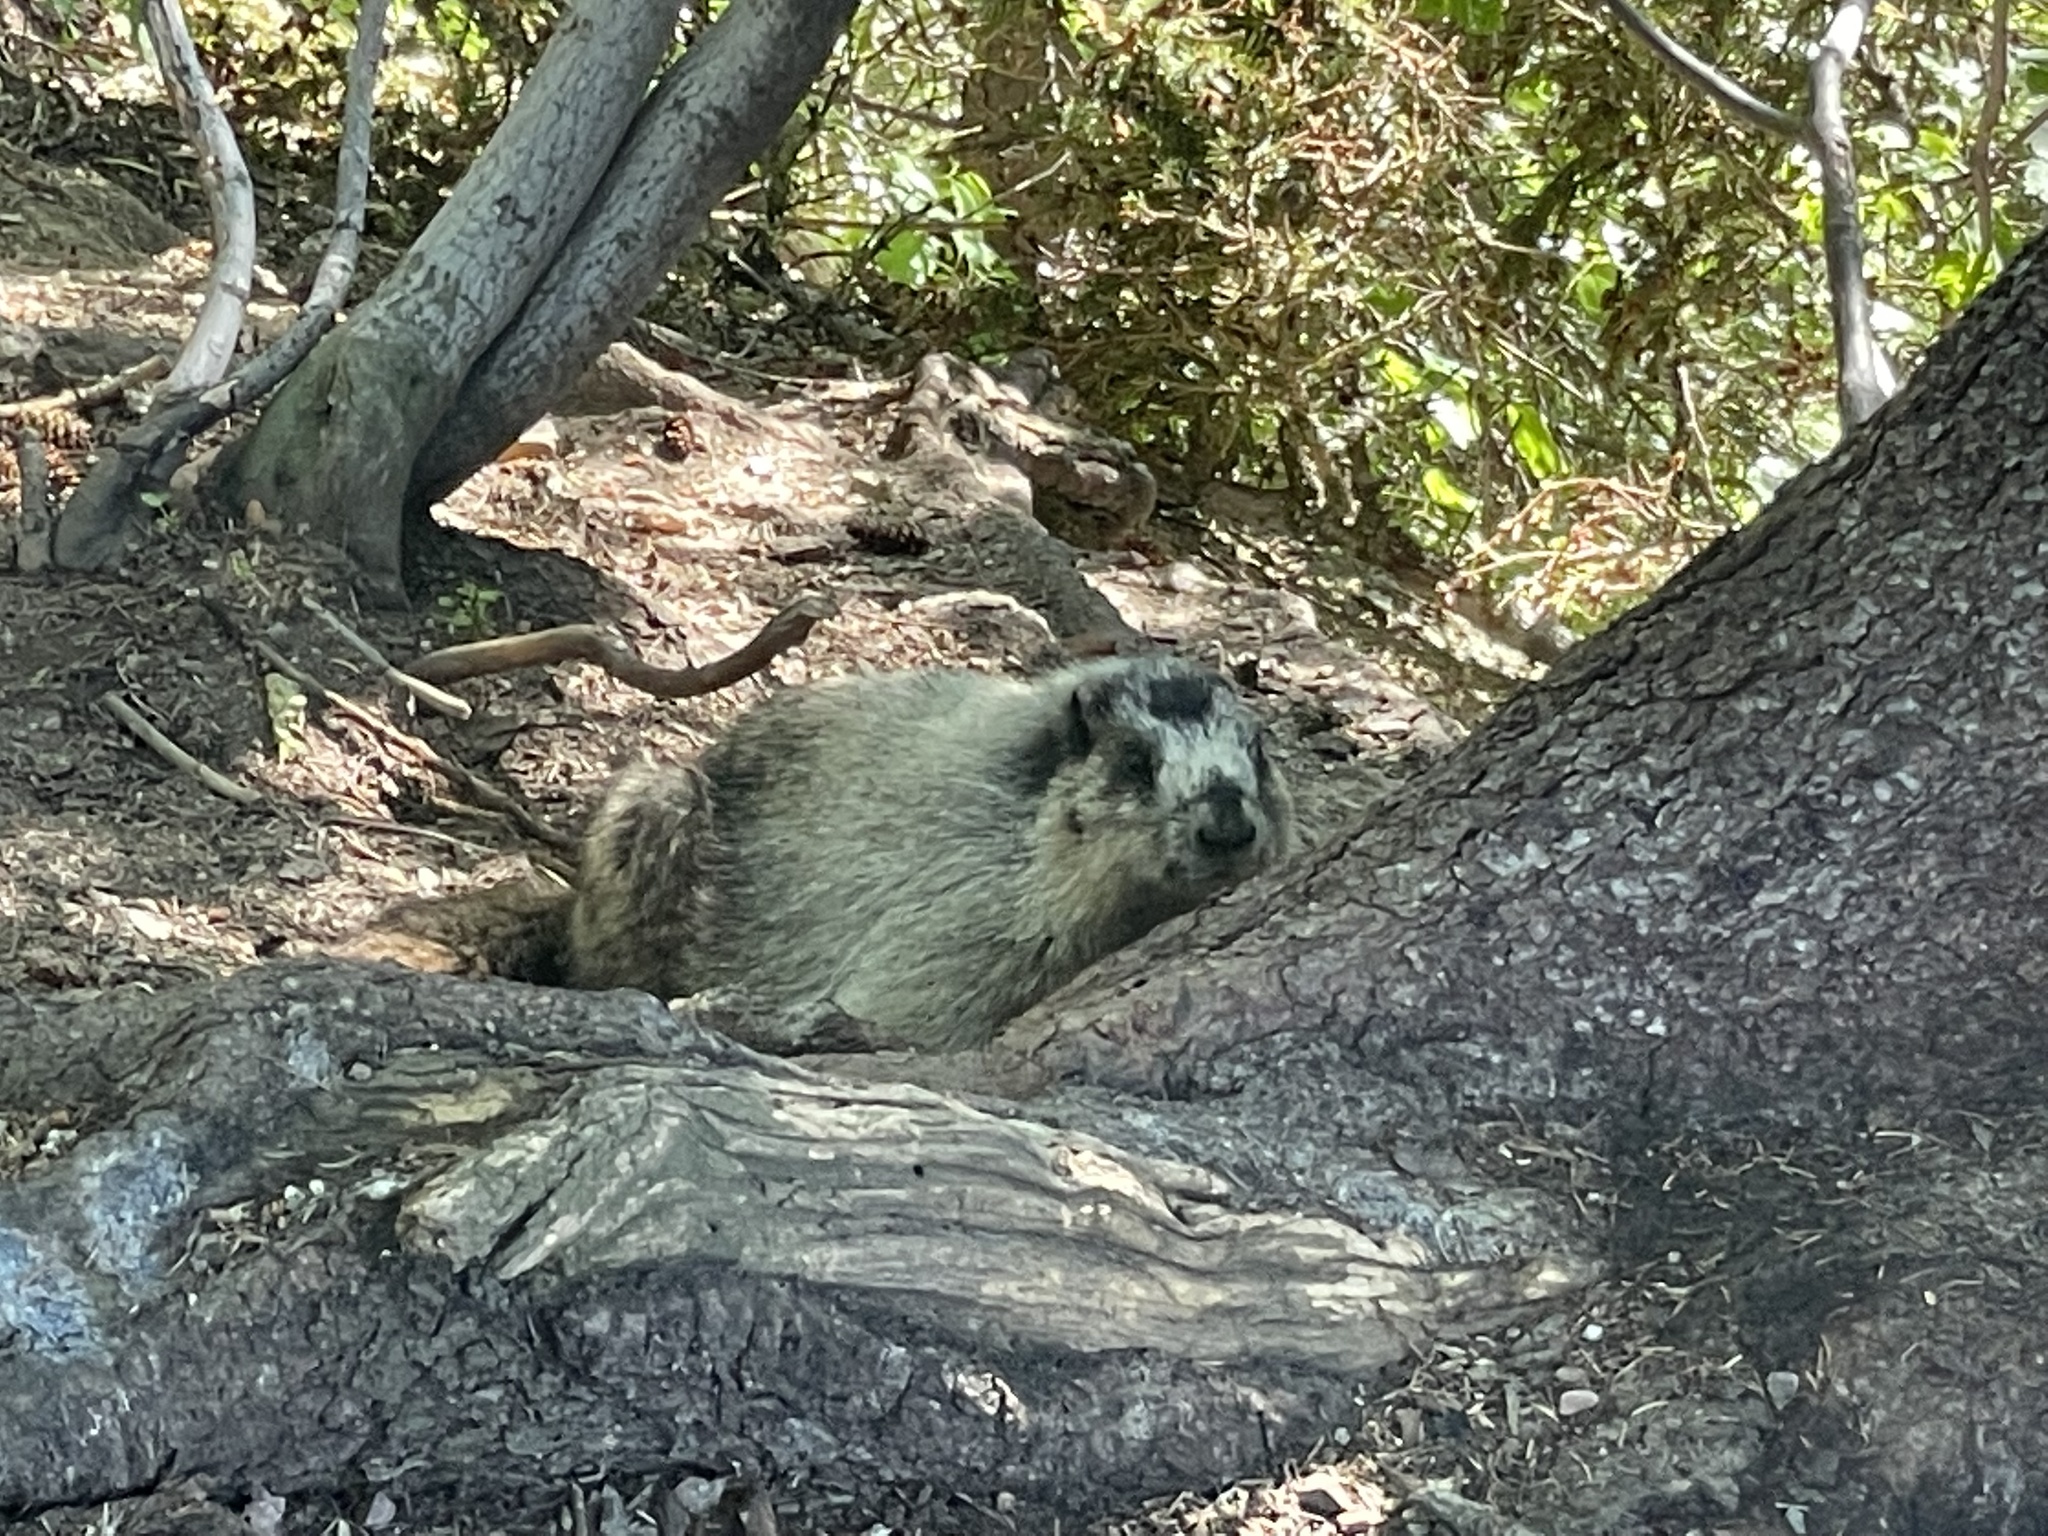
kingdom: Animalia
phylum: Chordata
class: Mammalia
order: Rodentia
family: Sciuridae
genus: Marmota
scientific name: Marmota caligata
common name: Hoary marmot
